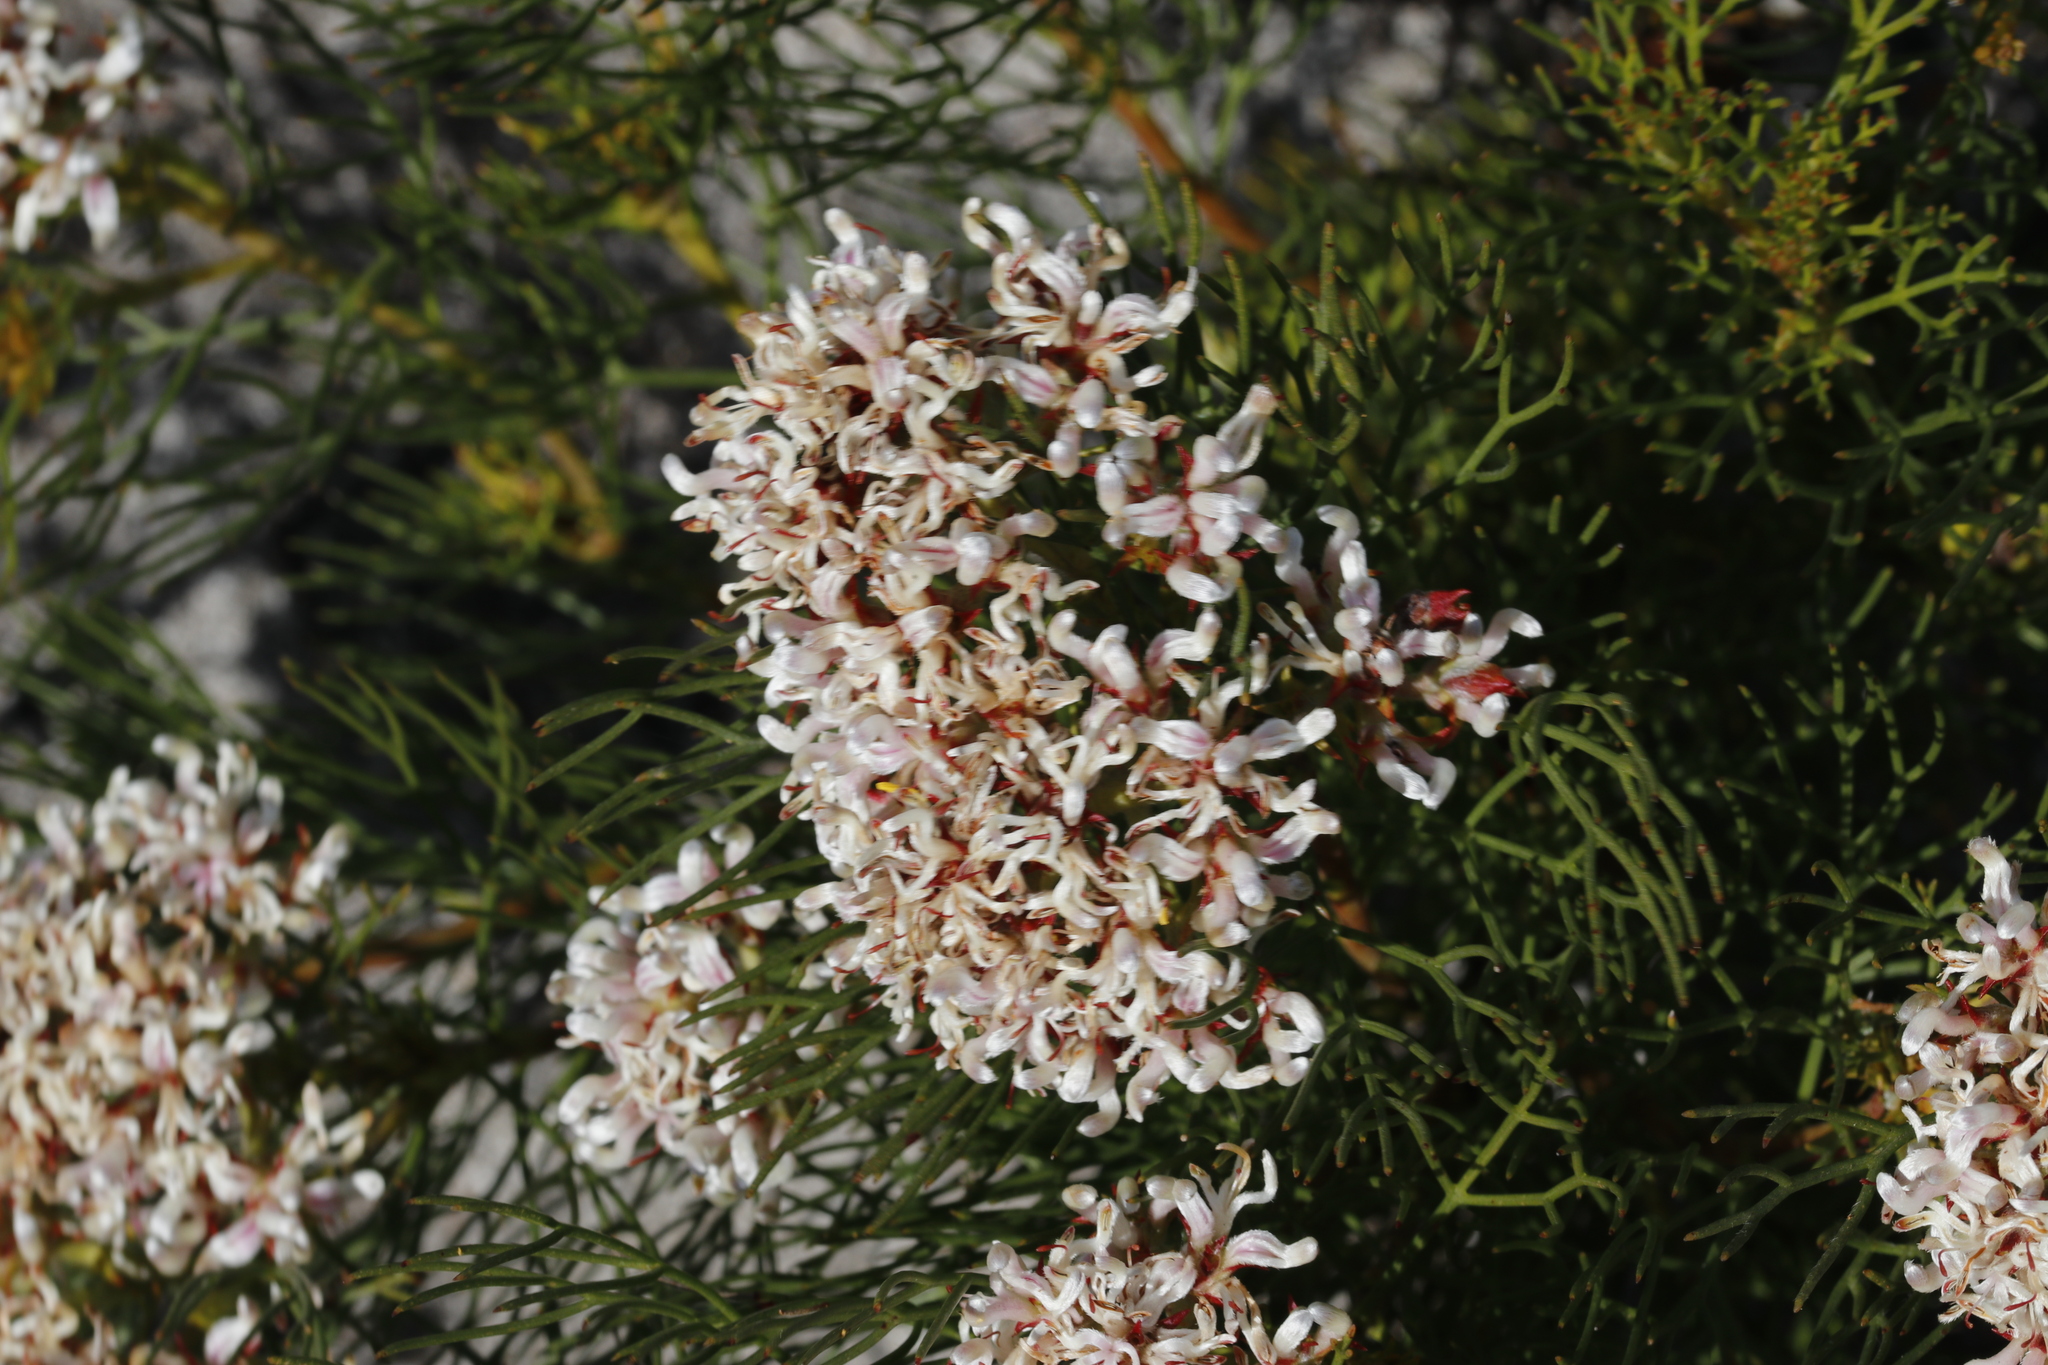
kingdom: Plantae
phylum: Tracheophyta
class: Magnoliopsida
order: Proteales
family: Proteaceae
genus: Serruria
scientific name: Serruria rubricaulis
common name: Red-stem spiderhead
